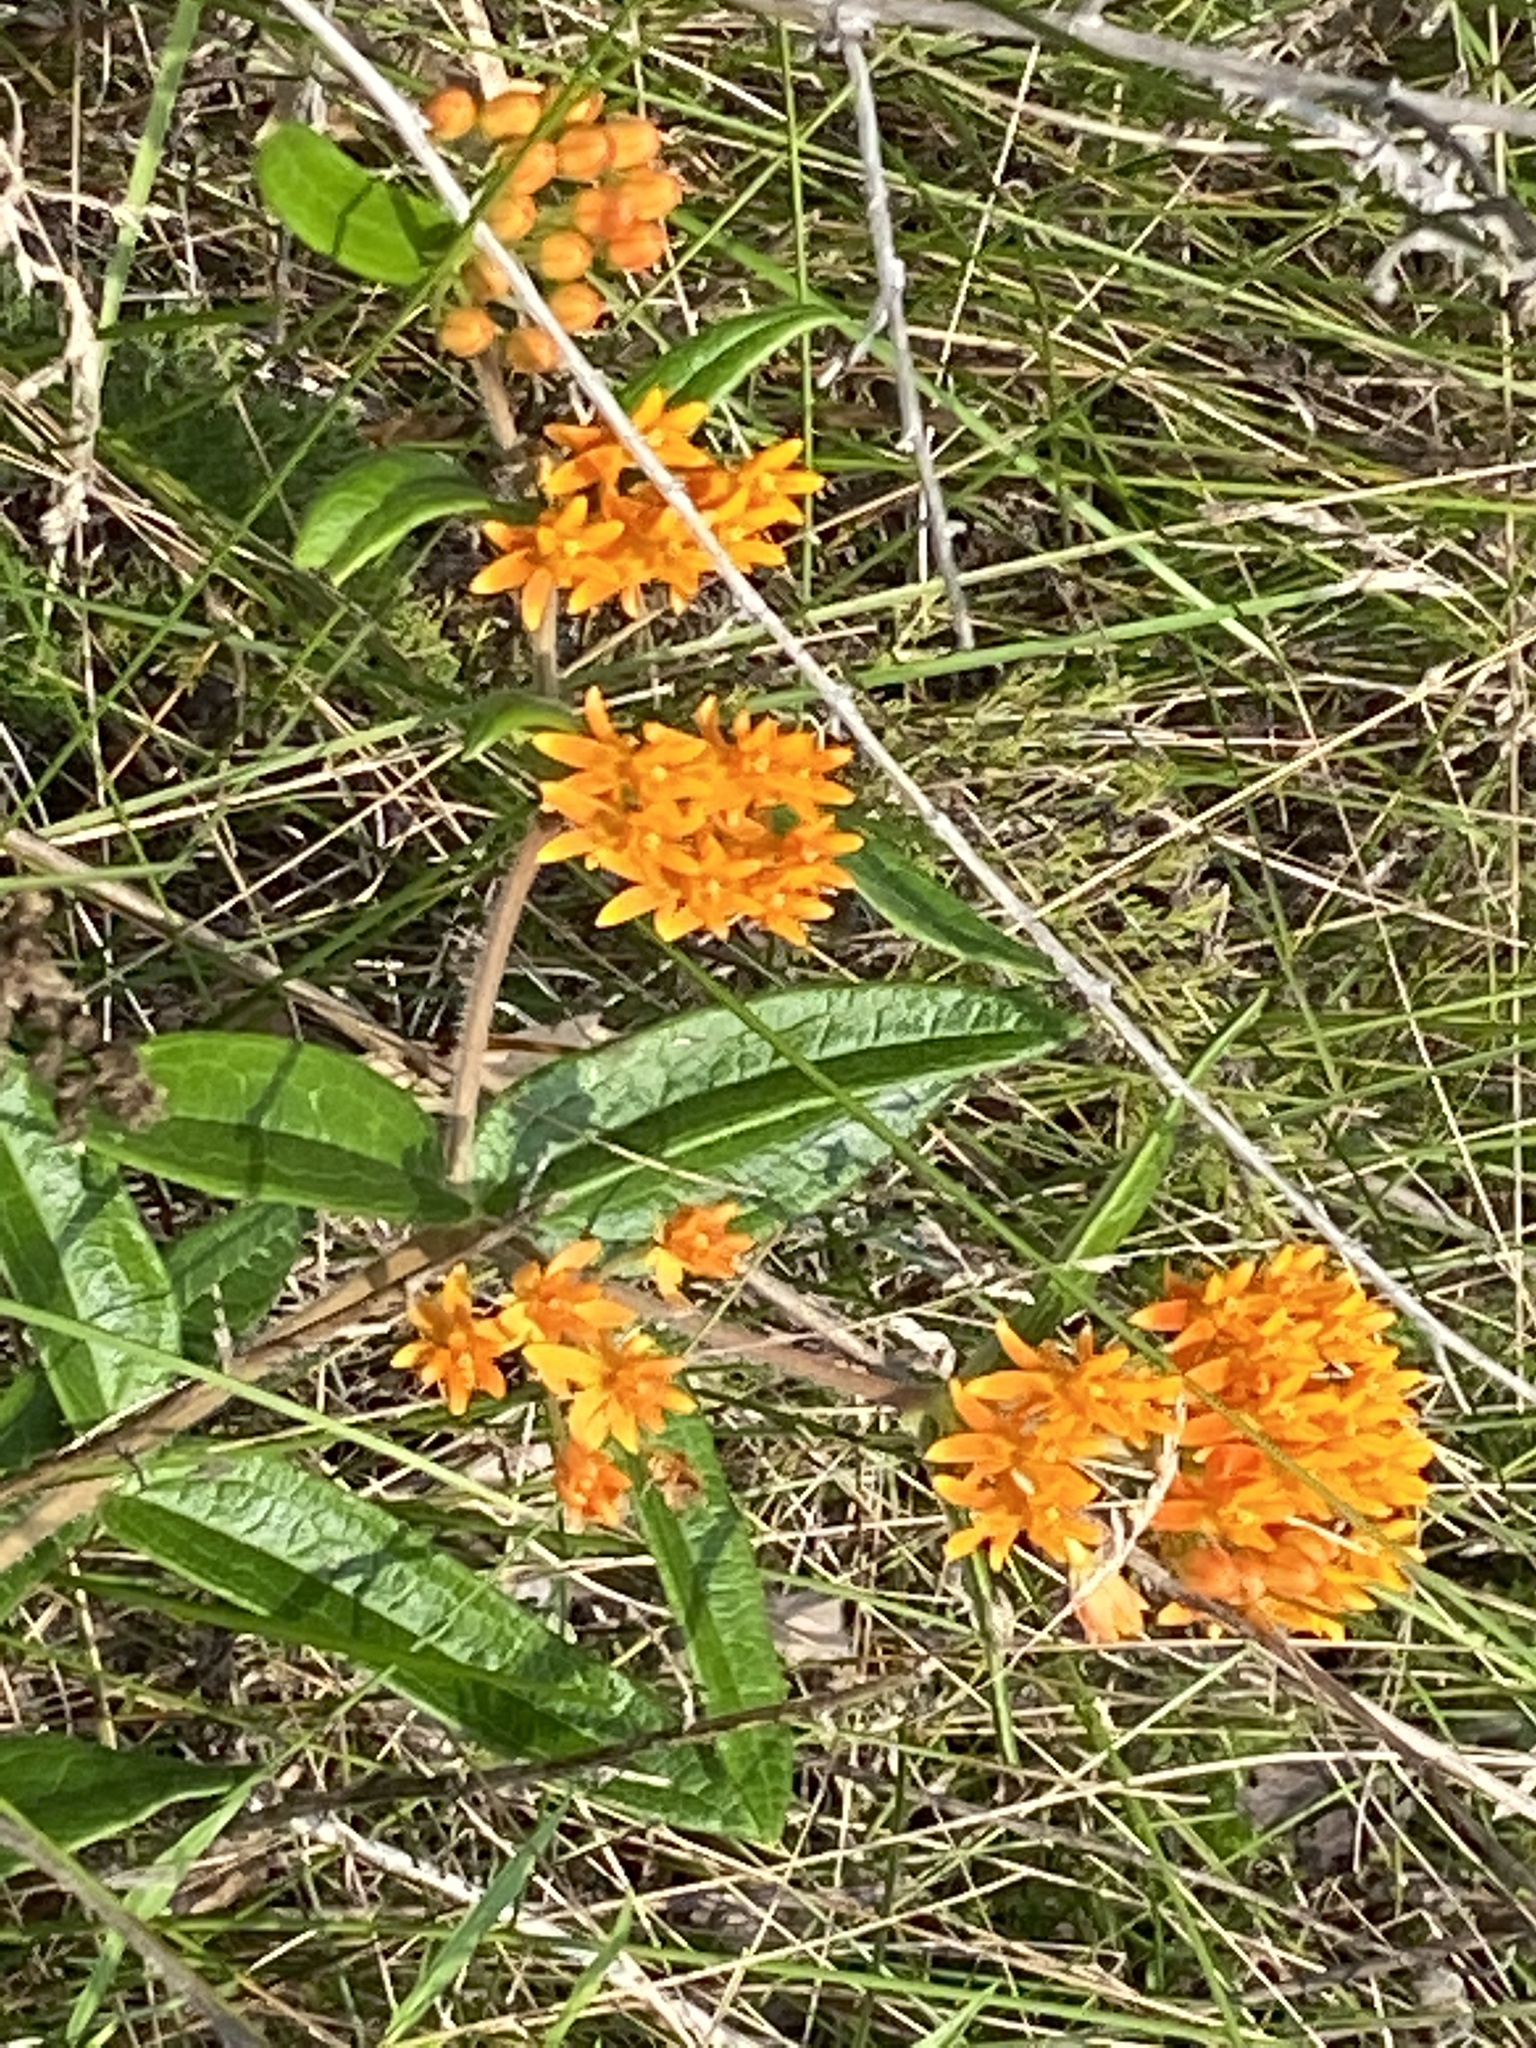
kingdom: Plantae
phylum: Tracheophyta
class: Magnoliopsida
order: Gentianales
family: Apocynaceae
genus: Asclepias
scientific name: Asclepias tuberosa
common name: Butterfly milkweed
